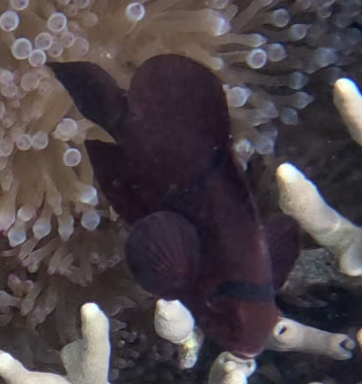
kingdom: Animalia
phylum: Chordata
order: Perciformes
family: Pomacentridae
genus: Premnas
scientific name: Premnas biaculeatus
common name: Spinecheek anemonefish
